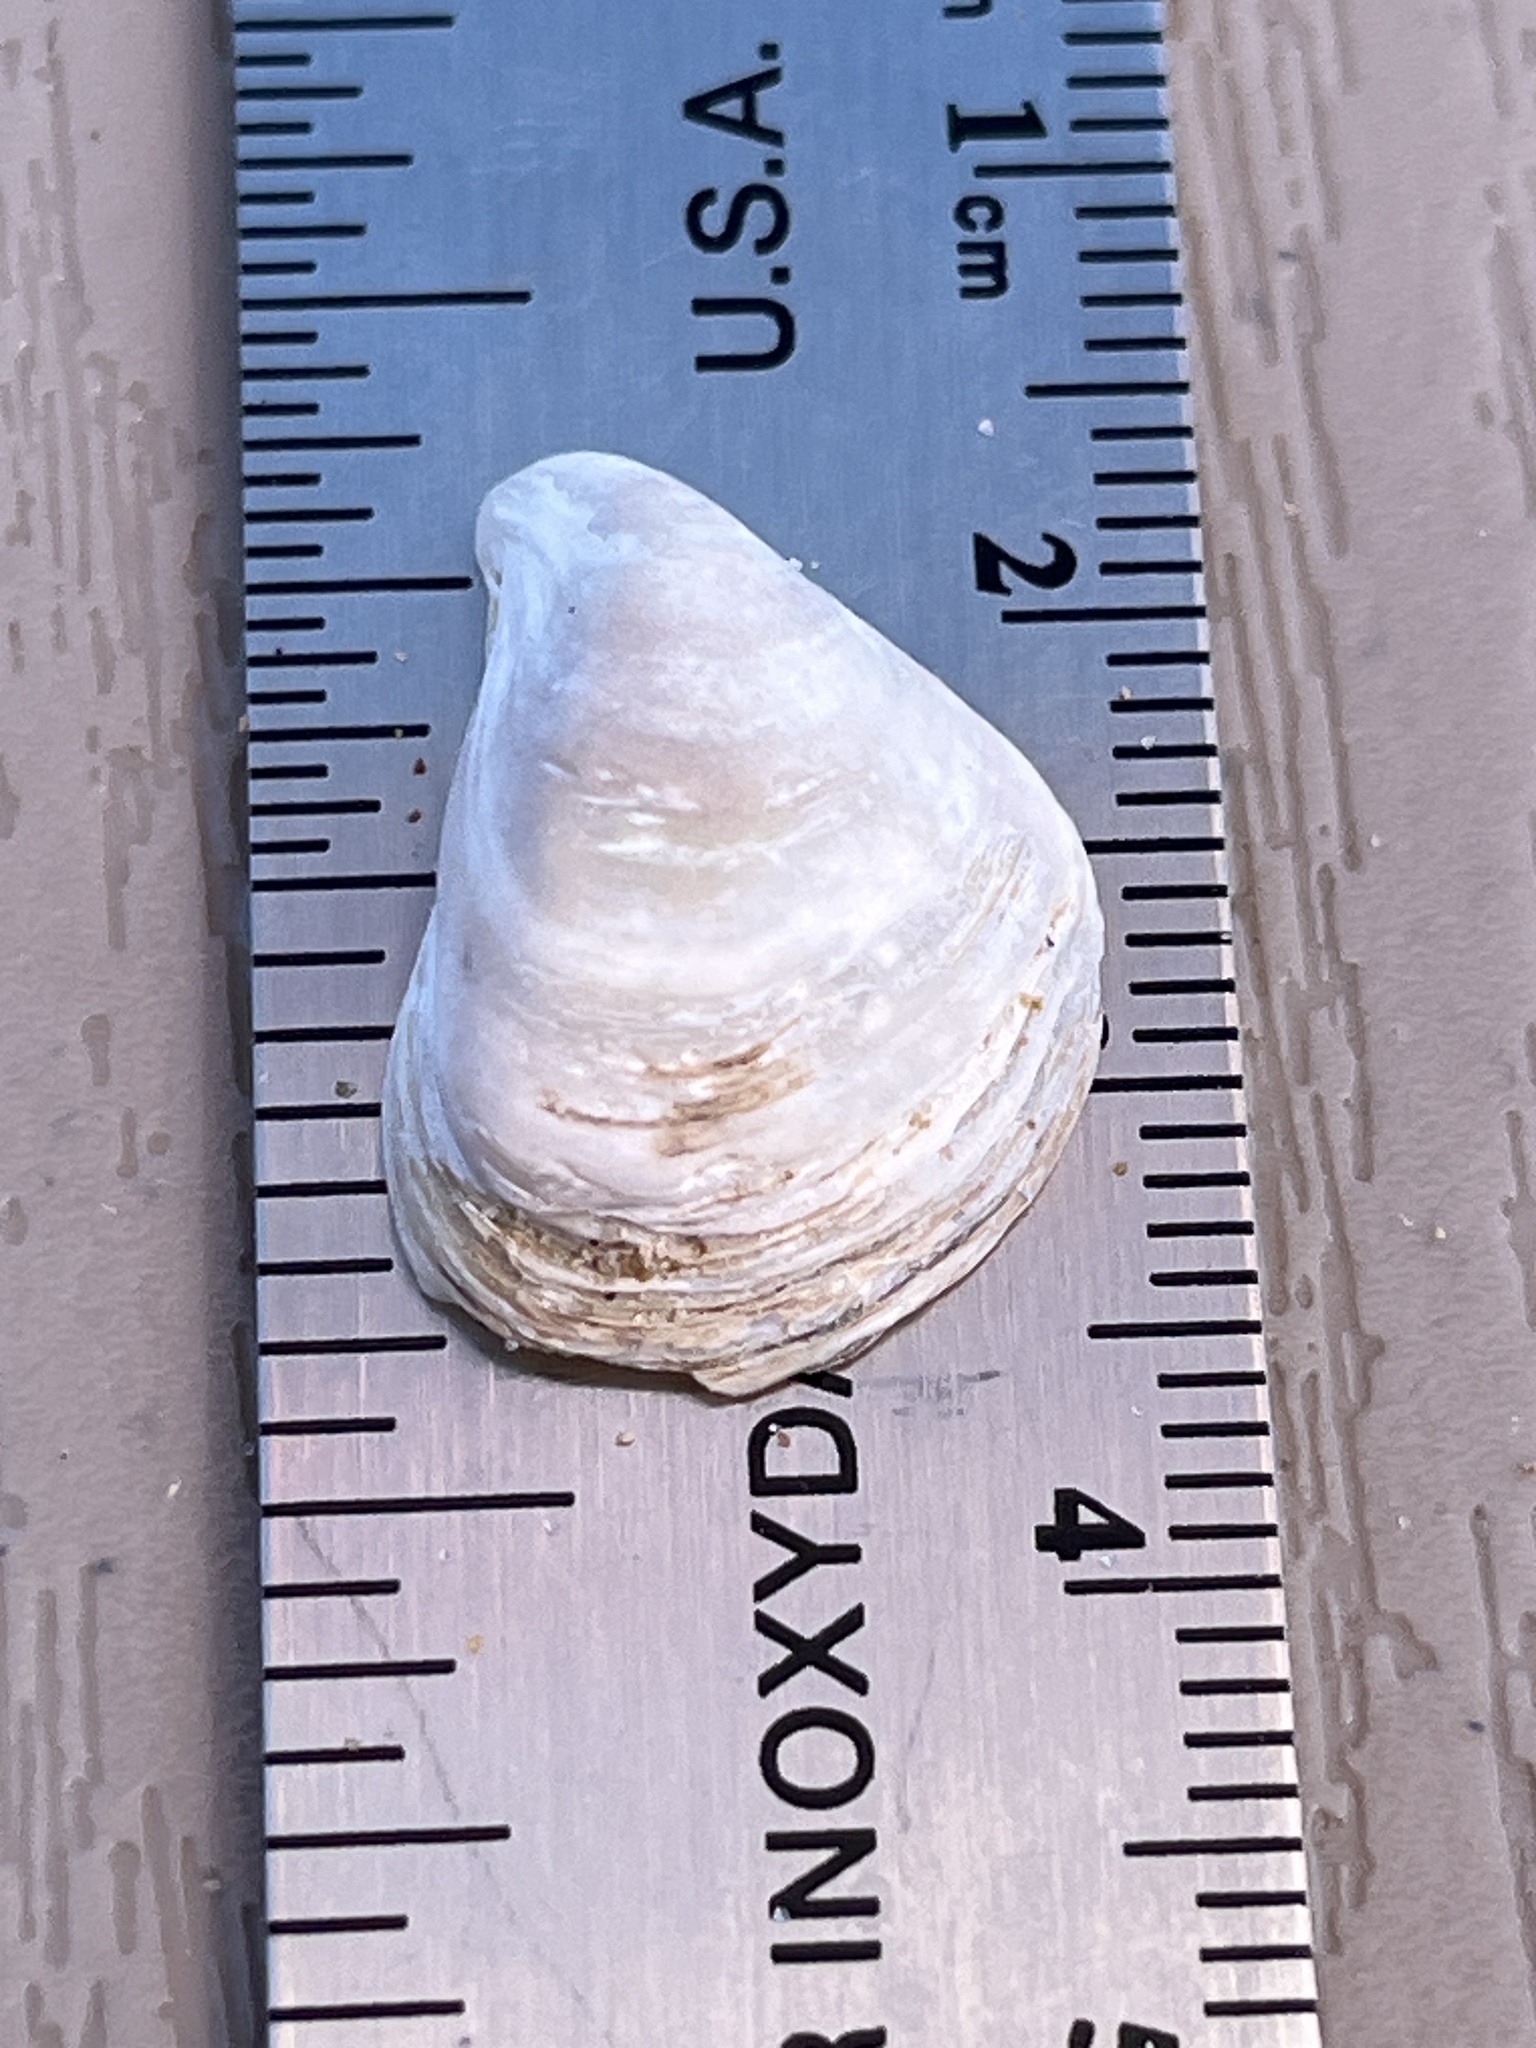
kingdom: Animalia
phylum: Mollusca
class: Bivalvia
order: Myida
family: Dreissenidae
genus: Dreissena
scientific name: Dreissena bugensis
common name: Quagga mussel
